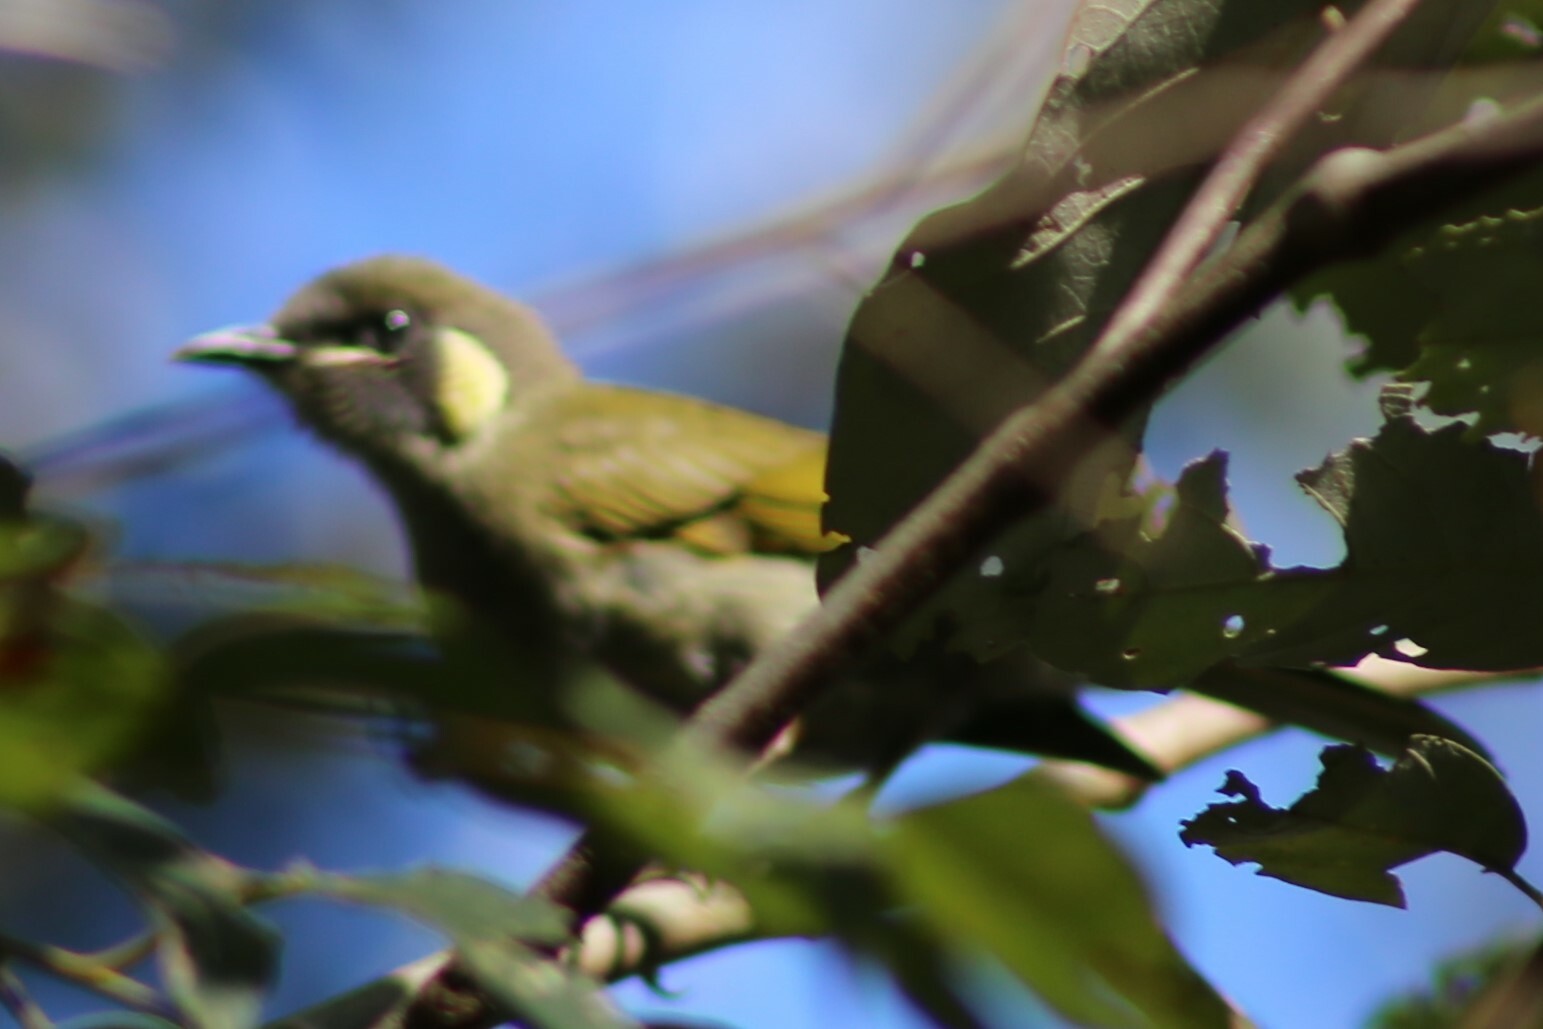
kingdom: Animalia
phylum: Chordata
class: Aves
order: Passeriformes
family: Meliphagidae
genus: Meliphaga
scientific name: Meliphaga lewinii
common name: Lewin's honeyeater
